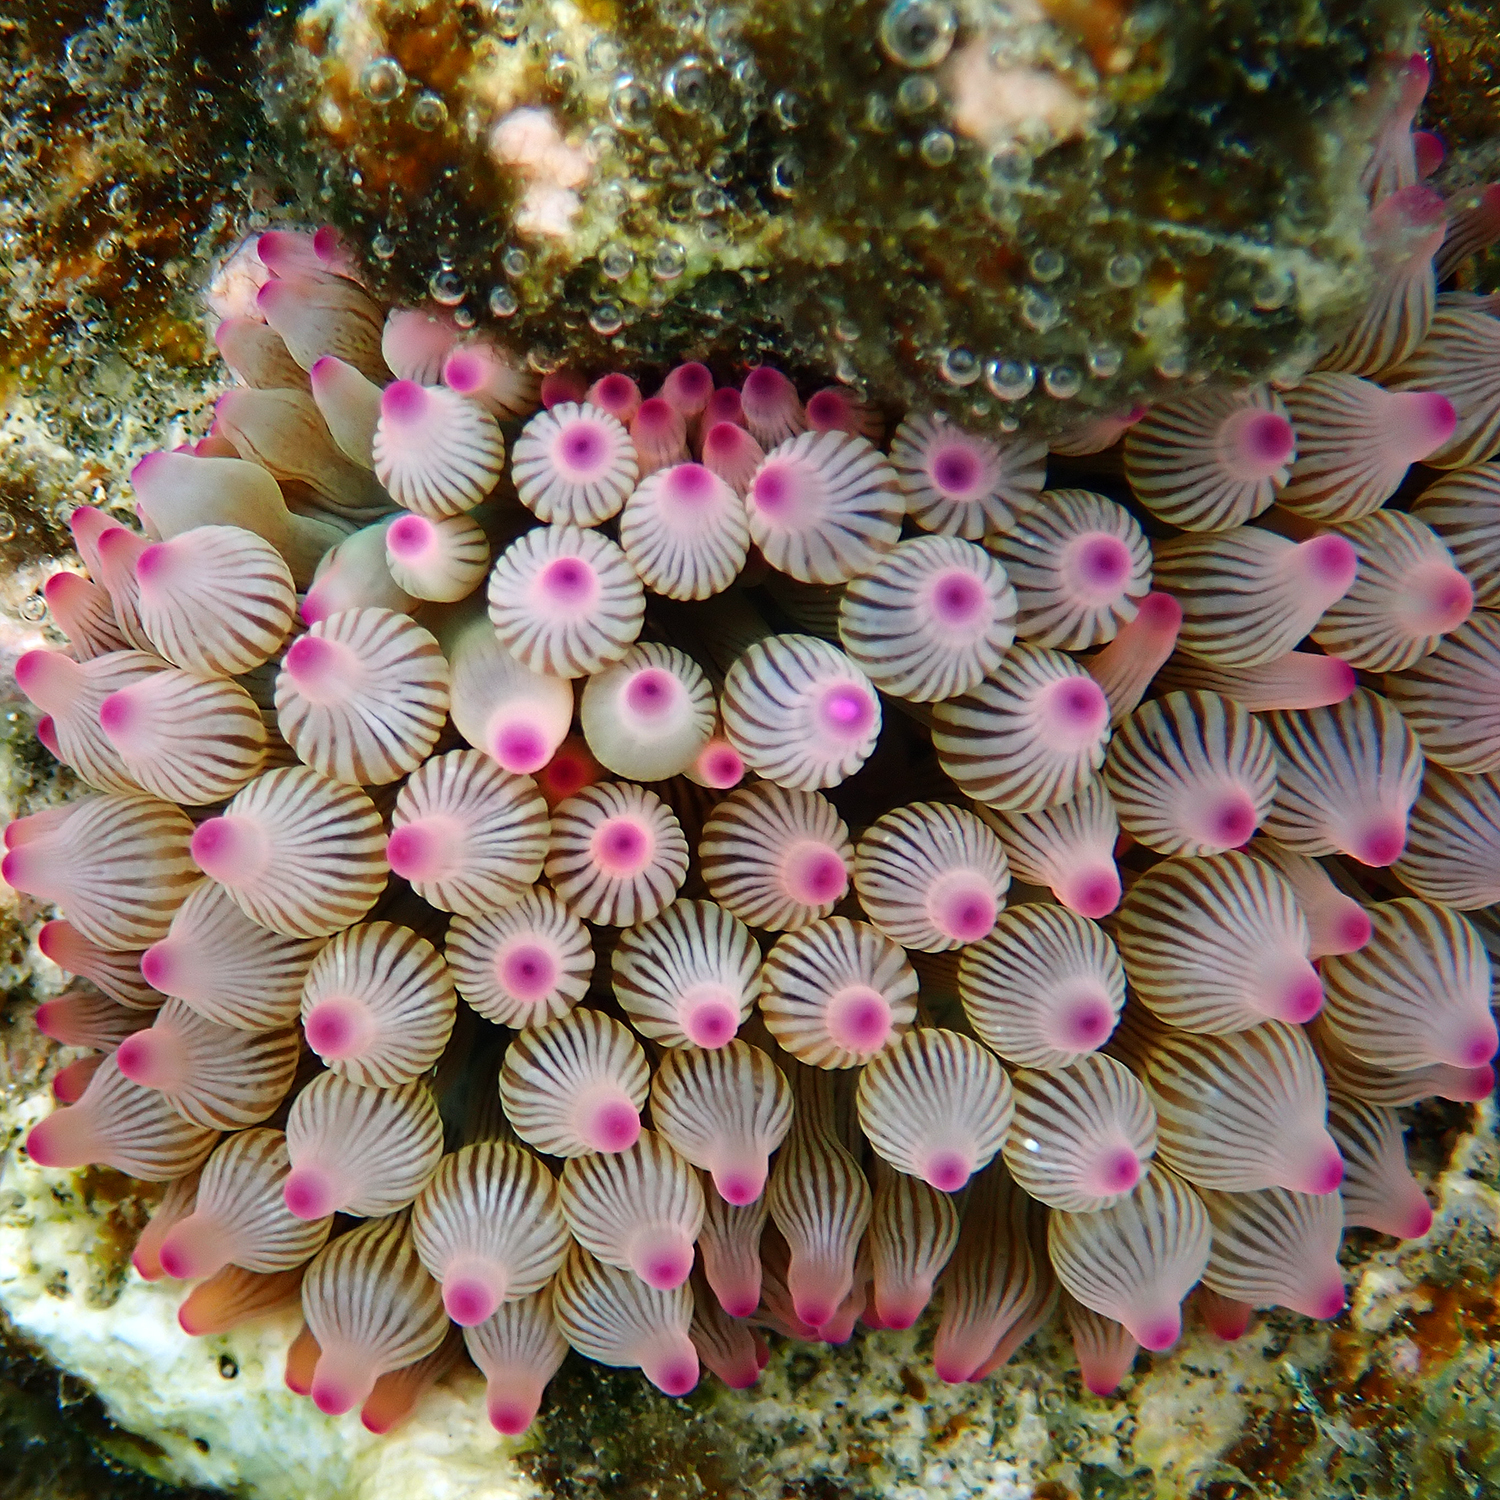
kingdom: Animalia
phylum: Cnidaria
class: Anthozoa
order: Actiniaria
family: Actiniidae
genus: Entacmaea
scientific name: Entacmaea quadricolor
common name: Bulb tentacle sea anemone
